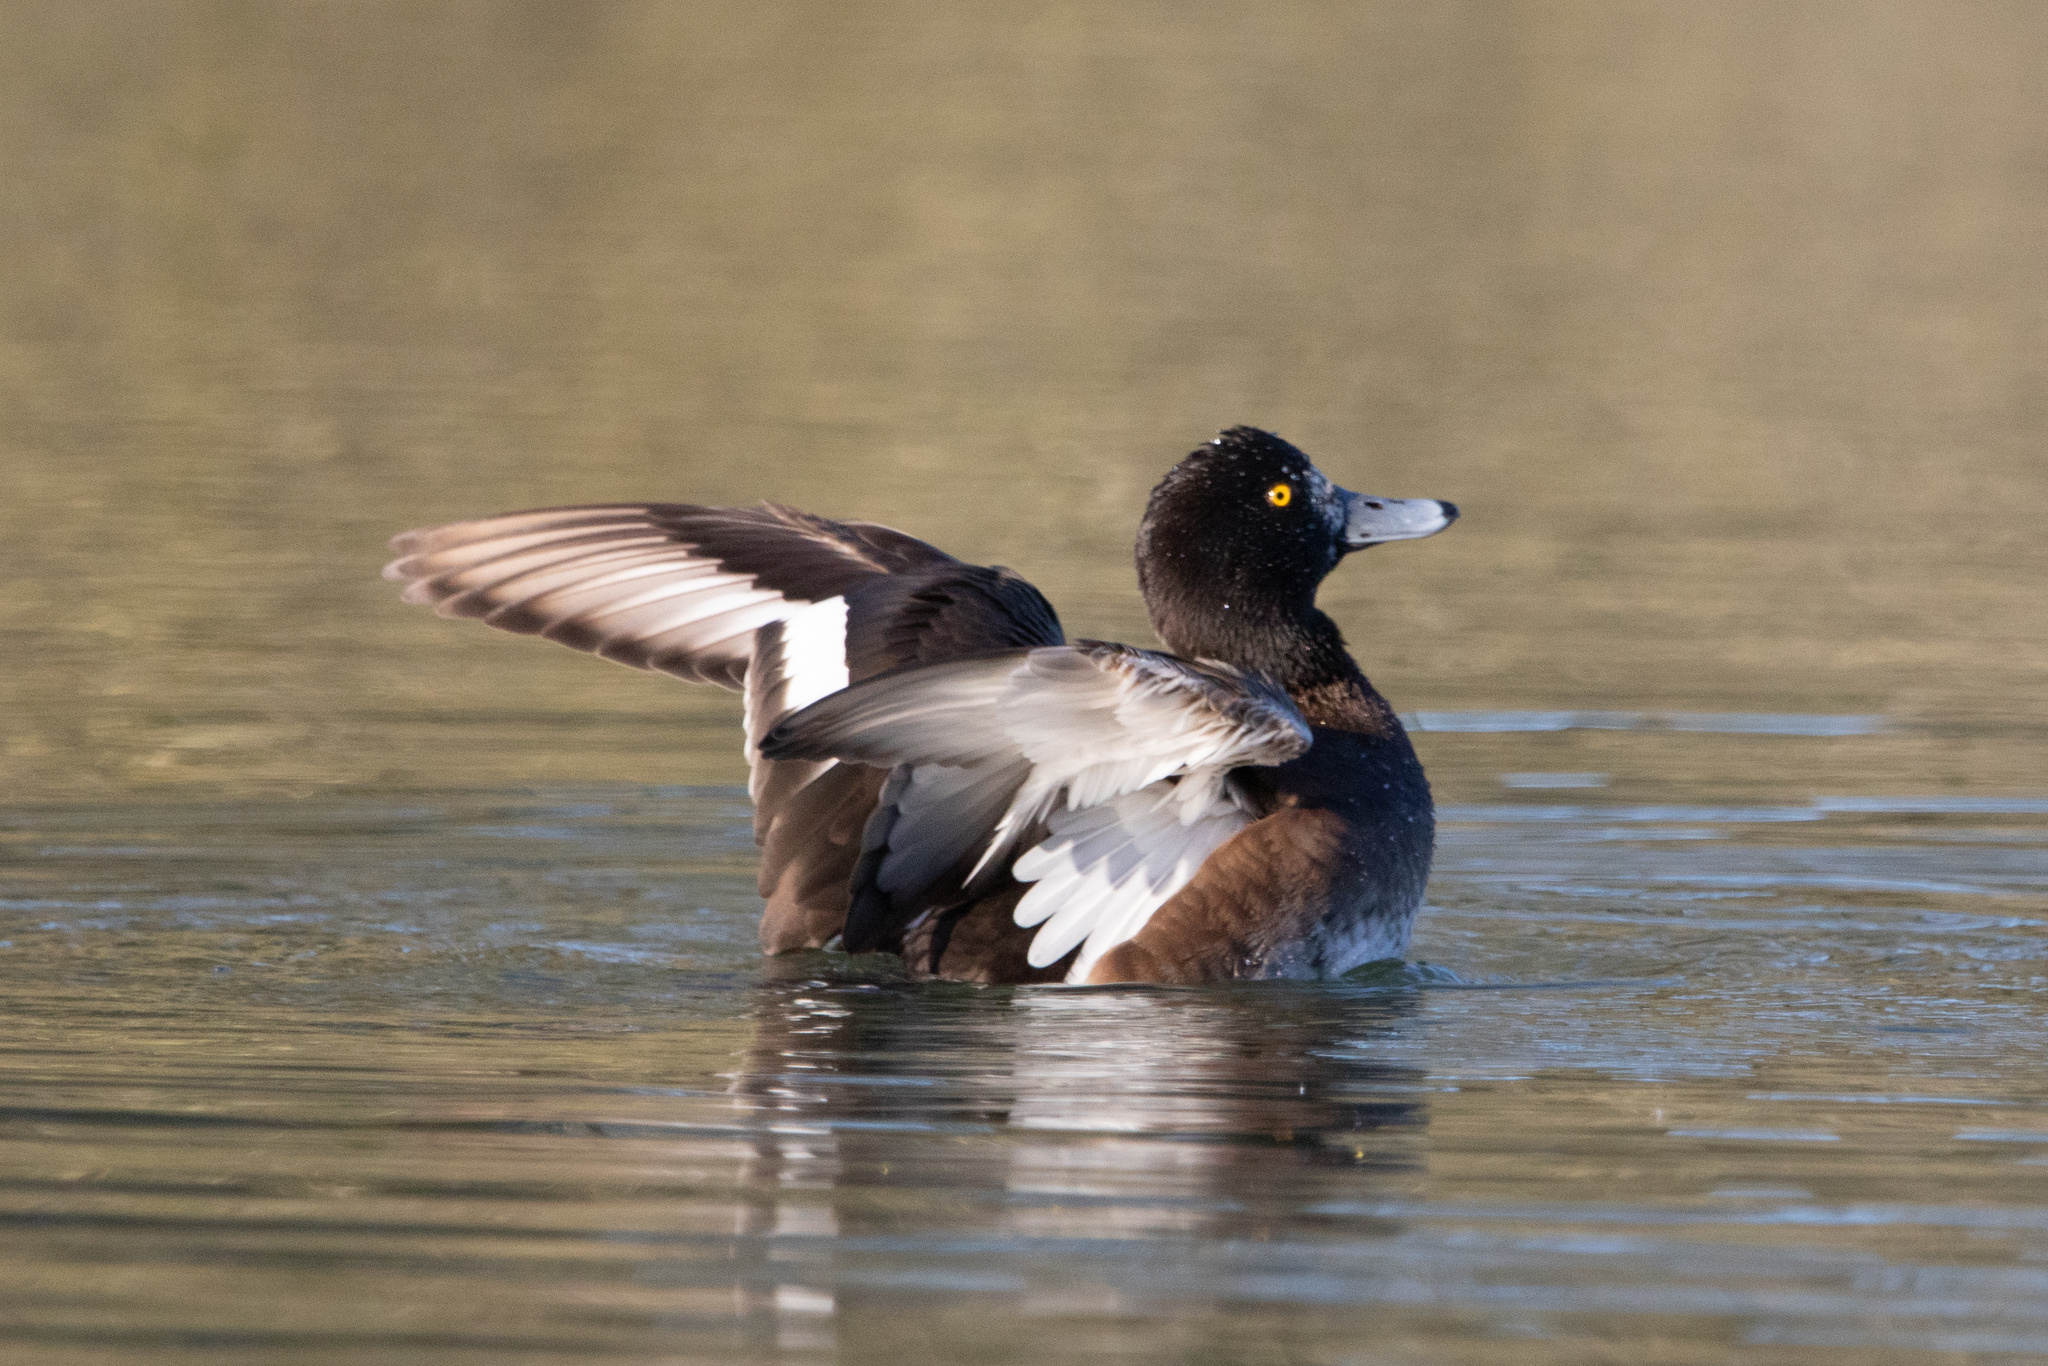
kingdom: Animalia
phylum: Chordata
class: Aves
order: Anseriformes
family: Anatidae
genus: Aythya
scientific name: Aythya fuligula
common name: Tufted duck
